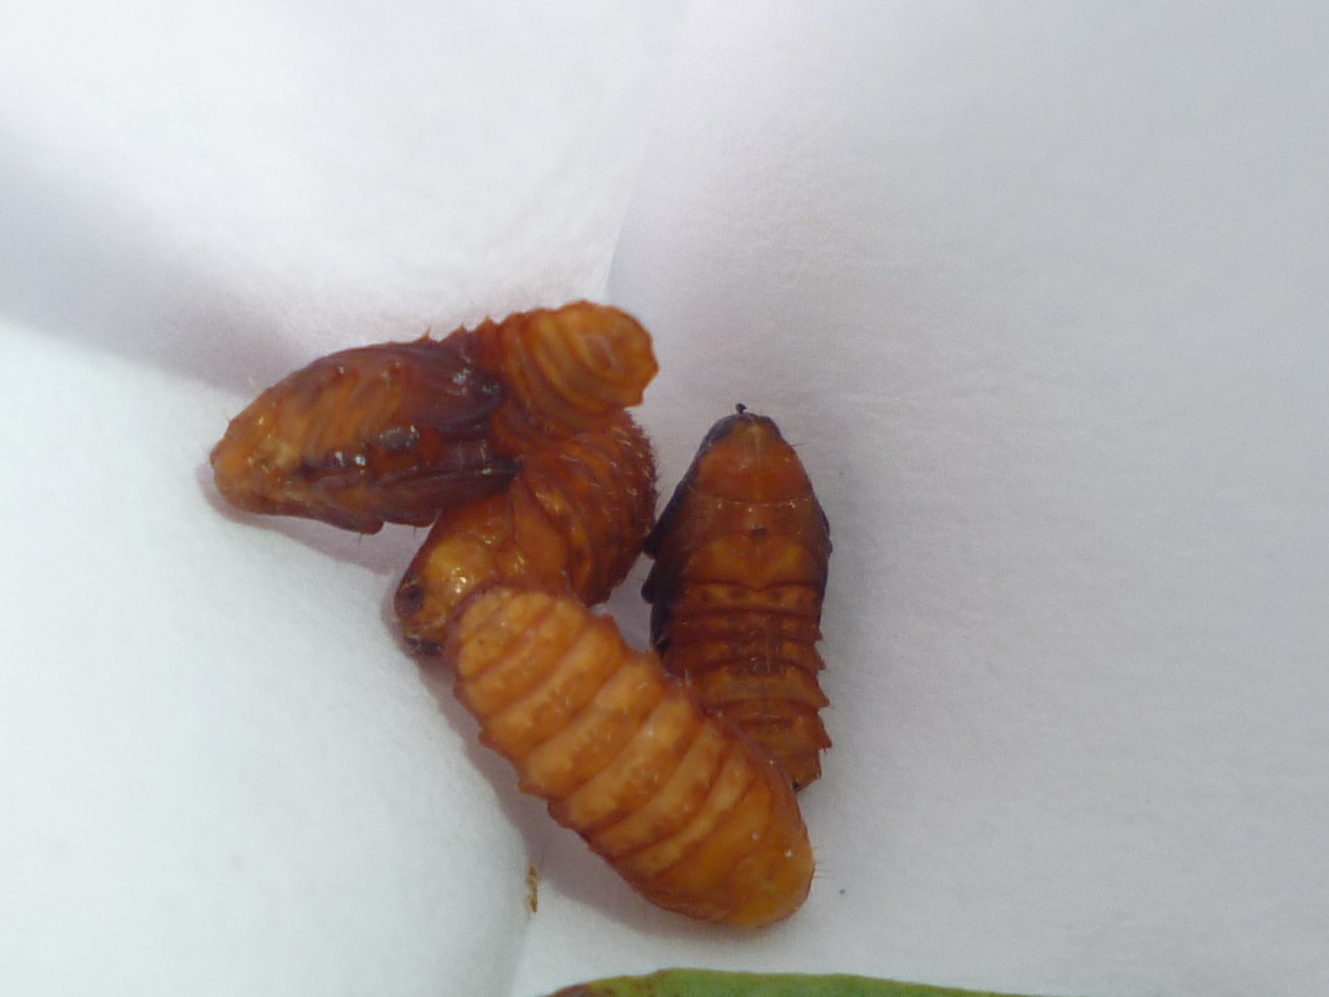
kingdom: Animalia
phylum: Arthropoda
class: Insecta
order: Coleoptera
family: Chrysomelidae
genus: Odontota
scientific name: Odontota dorsalis
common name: Locust leaf-miner beetle
